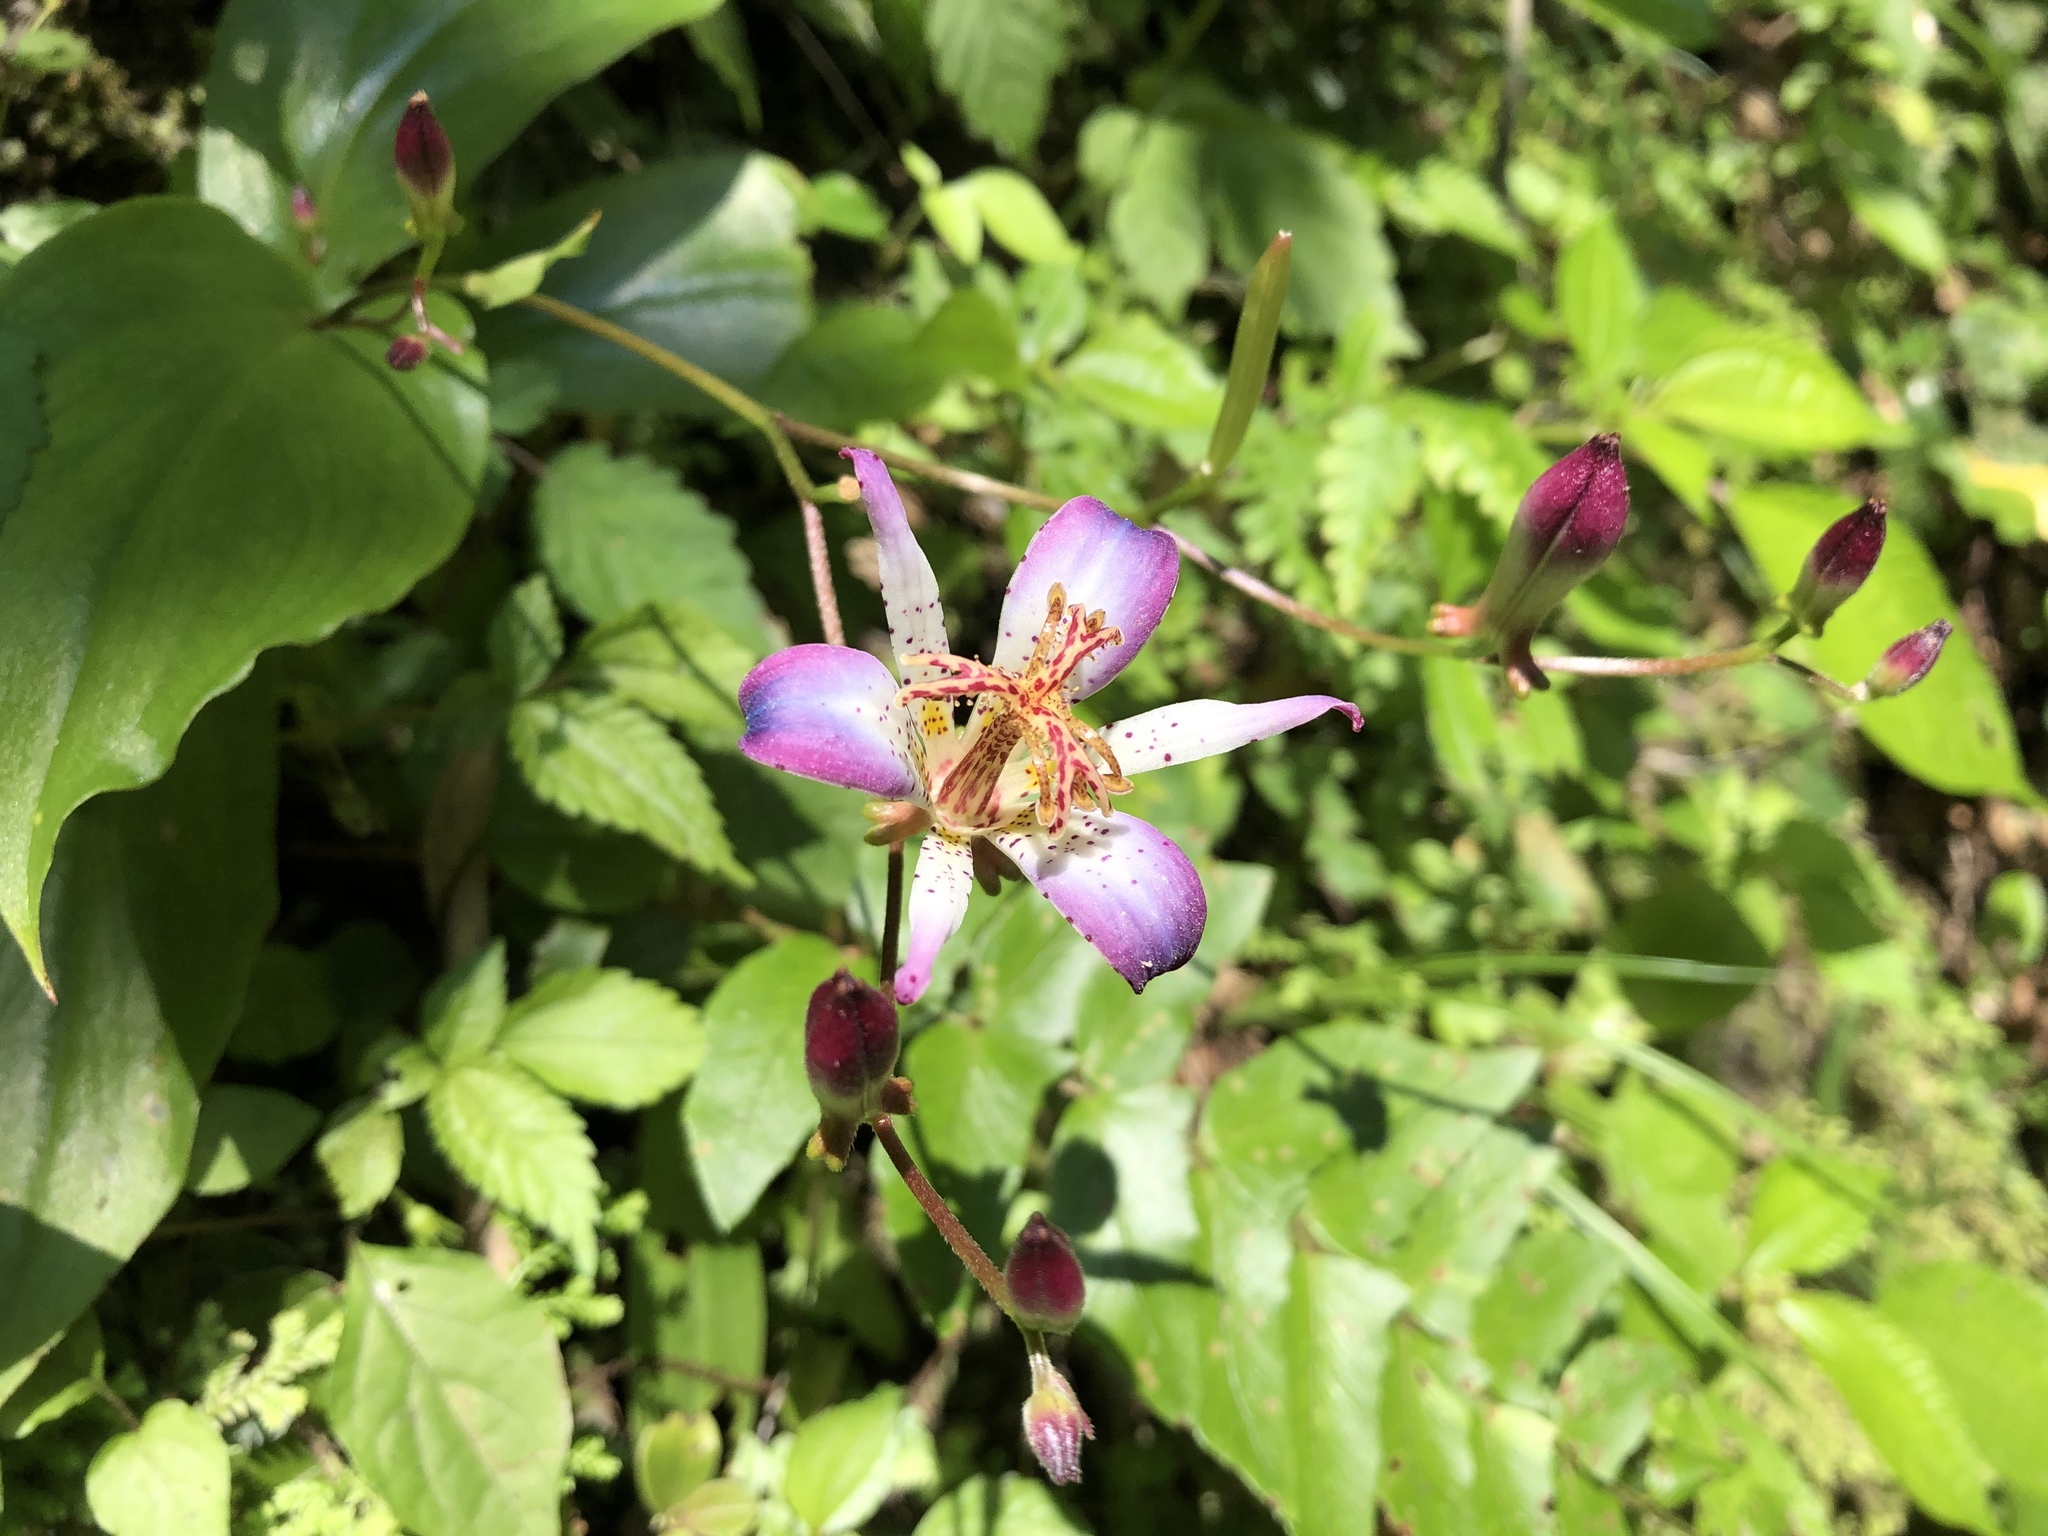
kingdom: Plantae
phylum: Tracheophyta
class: Liliopsida
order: Liliales
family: Liliaceae
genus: Tricyrtis
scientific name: Tricyrtis lasiocarpa
